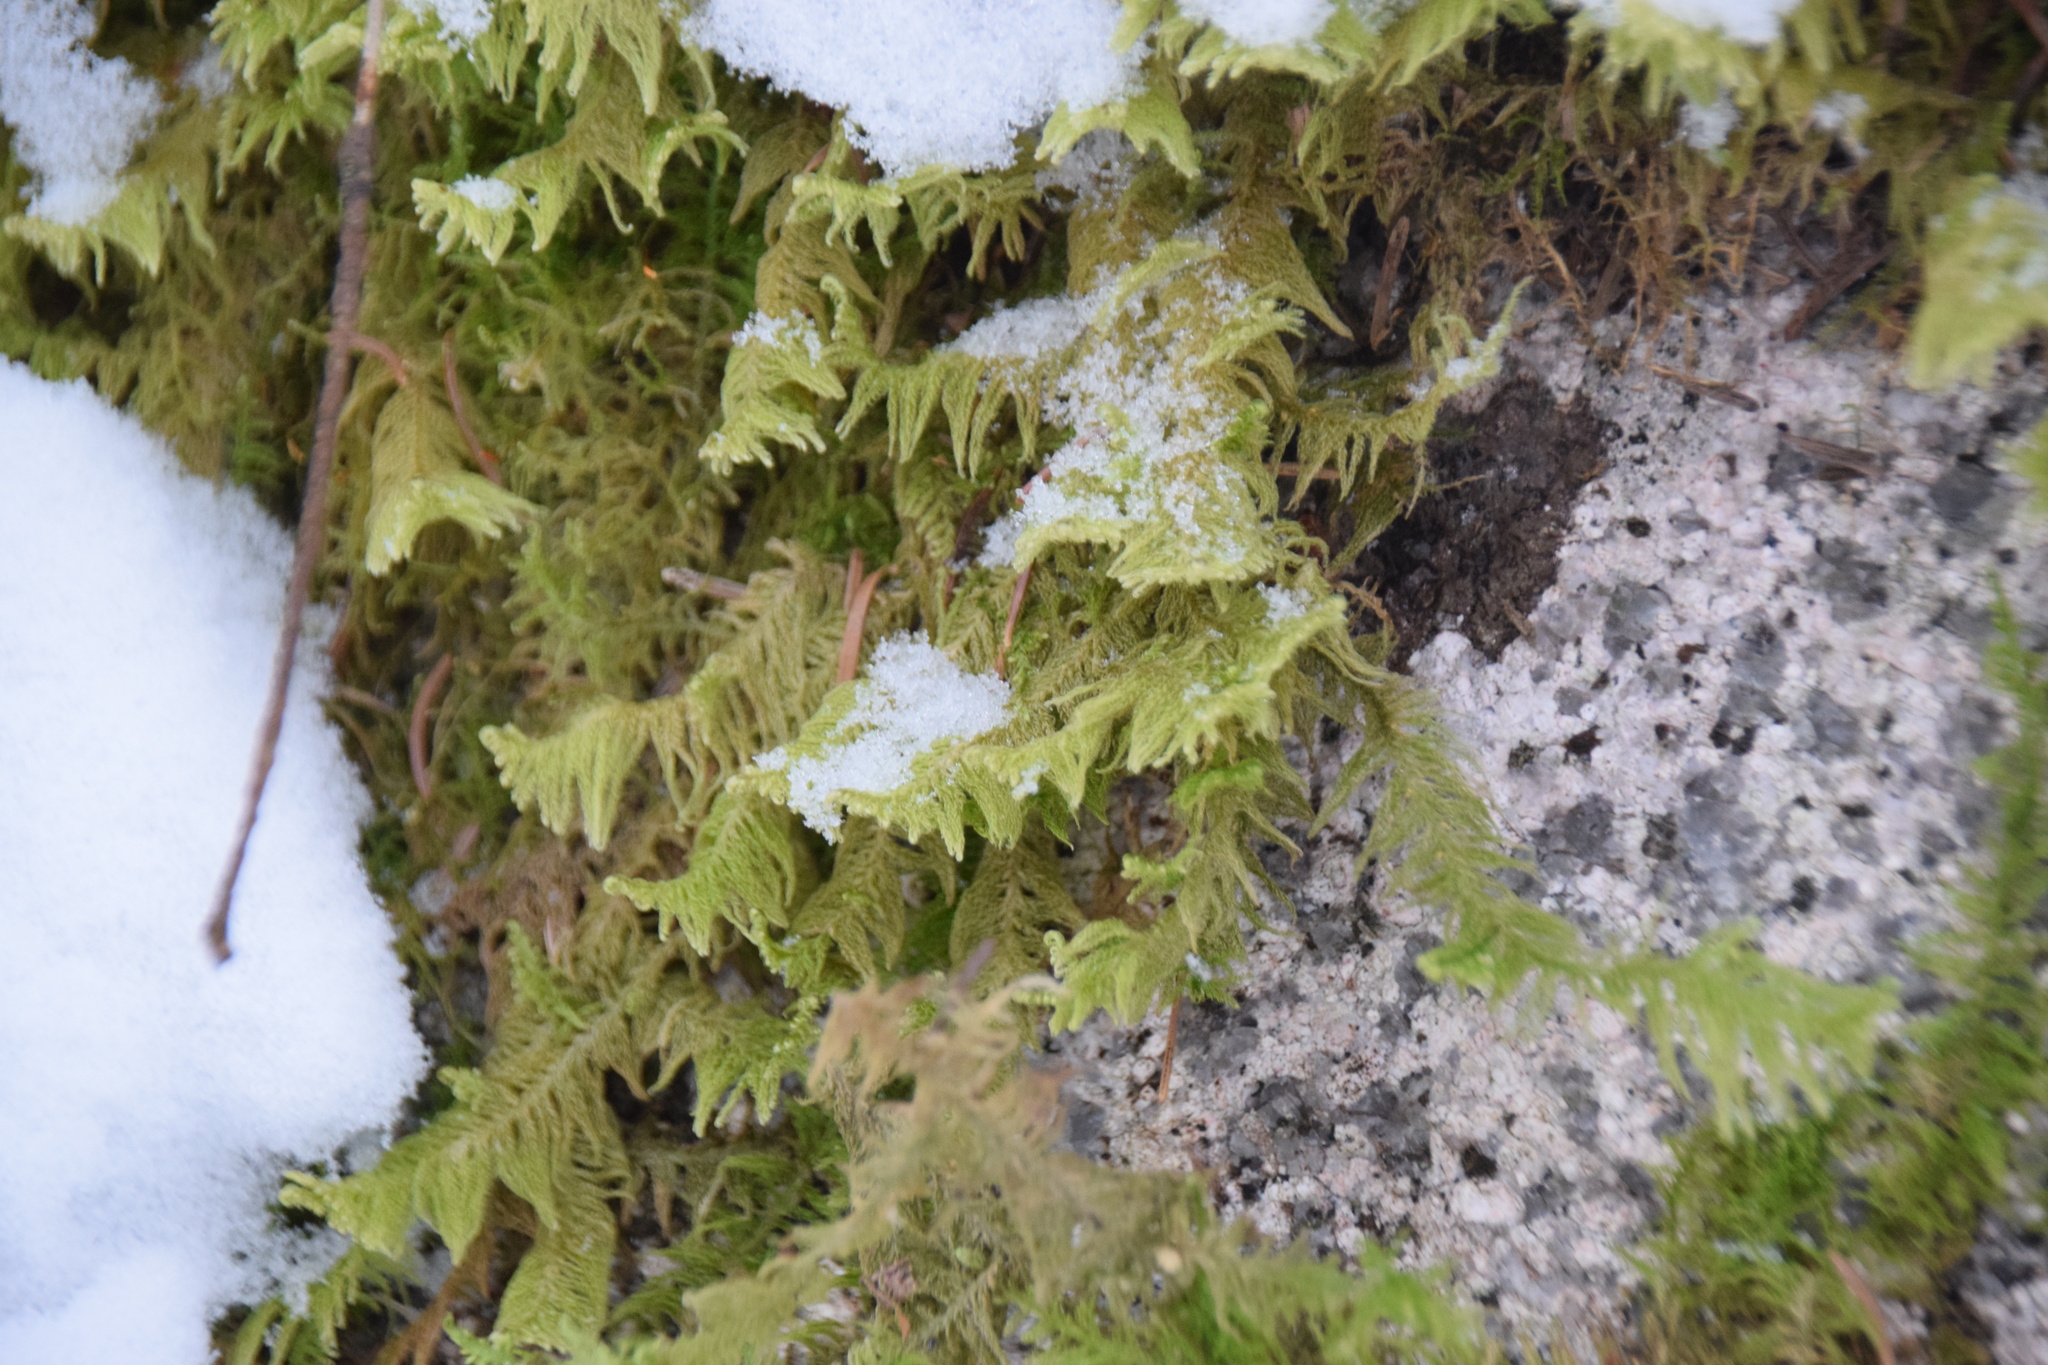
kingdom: Plantae
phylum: Bryophyta
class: Bryopsida
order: Hypnales
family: Pylaisiaceae
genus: Ptilium
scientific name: Ptilium crista-castrensis
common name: Knight's plume moss
